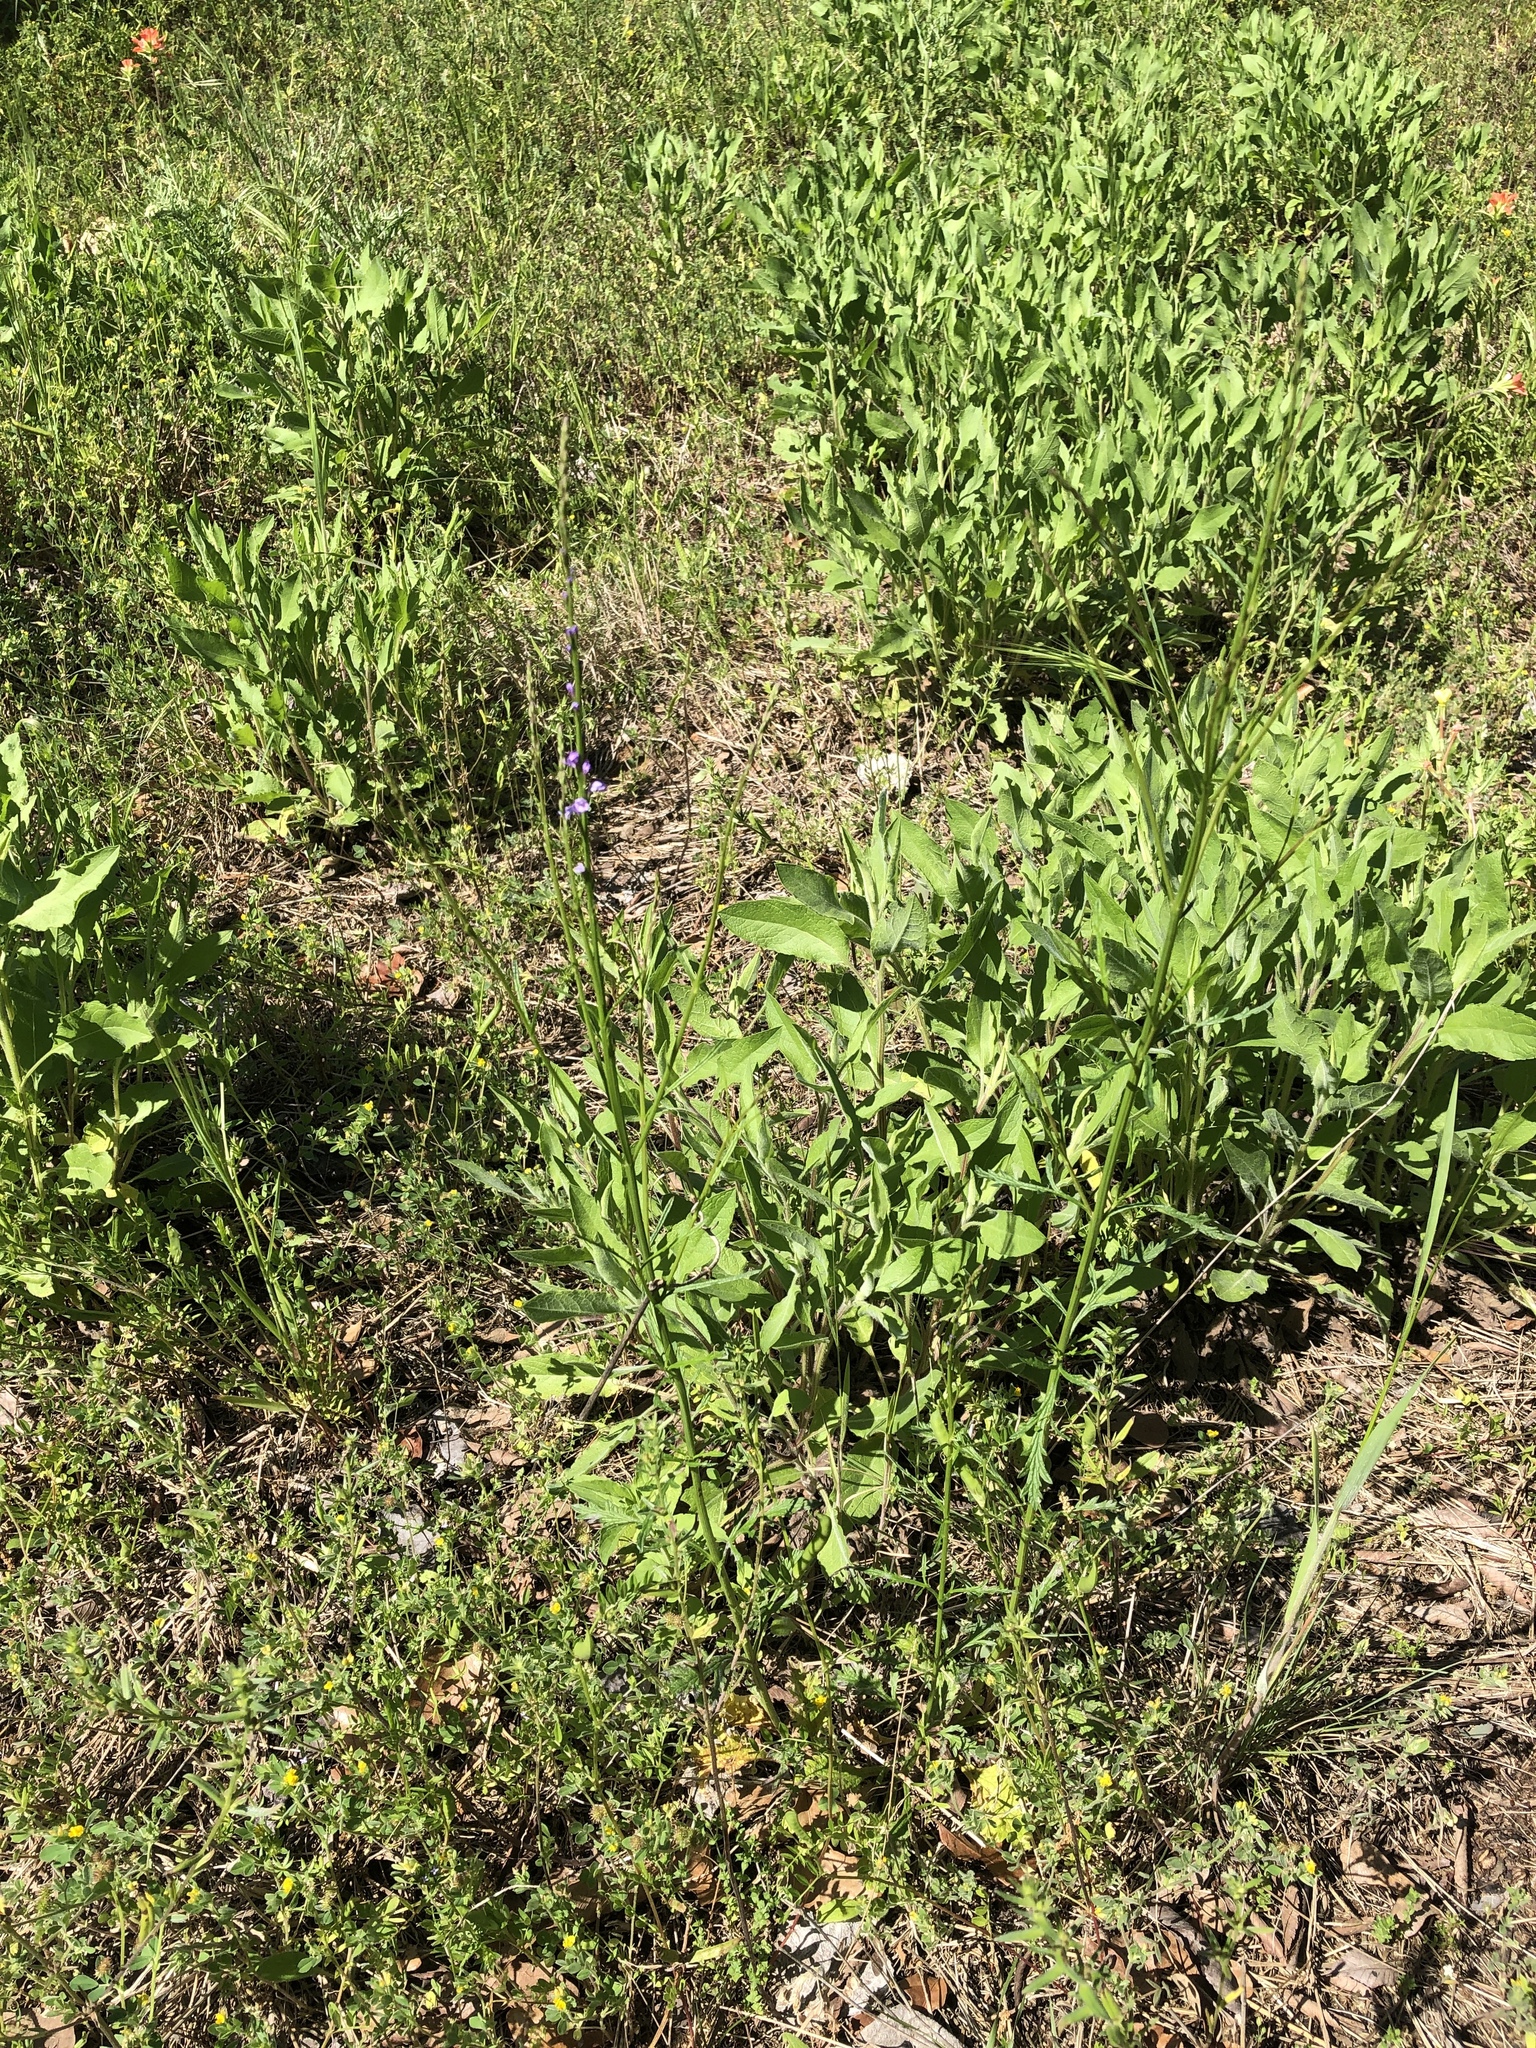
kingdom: Plantae
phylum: Tracheophyta
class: Magnoliopsida
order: Lamiales
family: Verbenaceae
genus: Verbena
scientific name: Verbena halei
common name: Texas vervain
